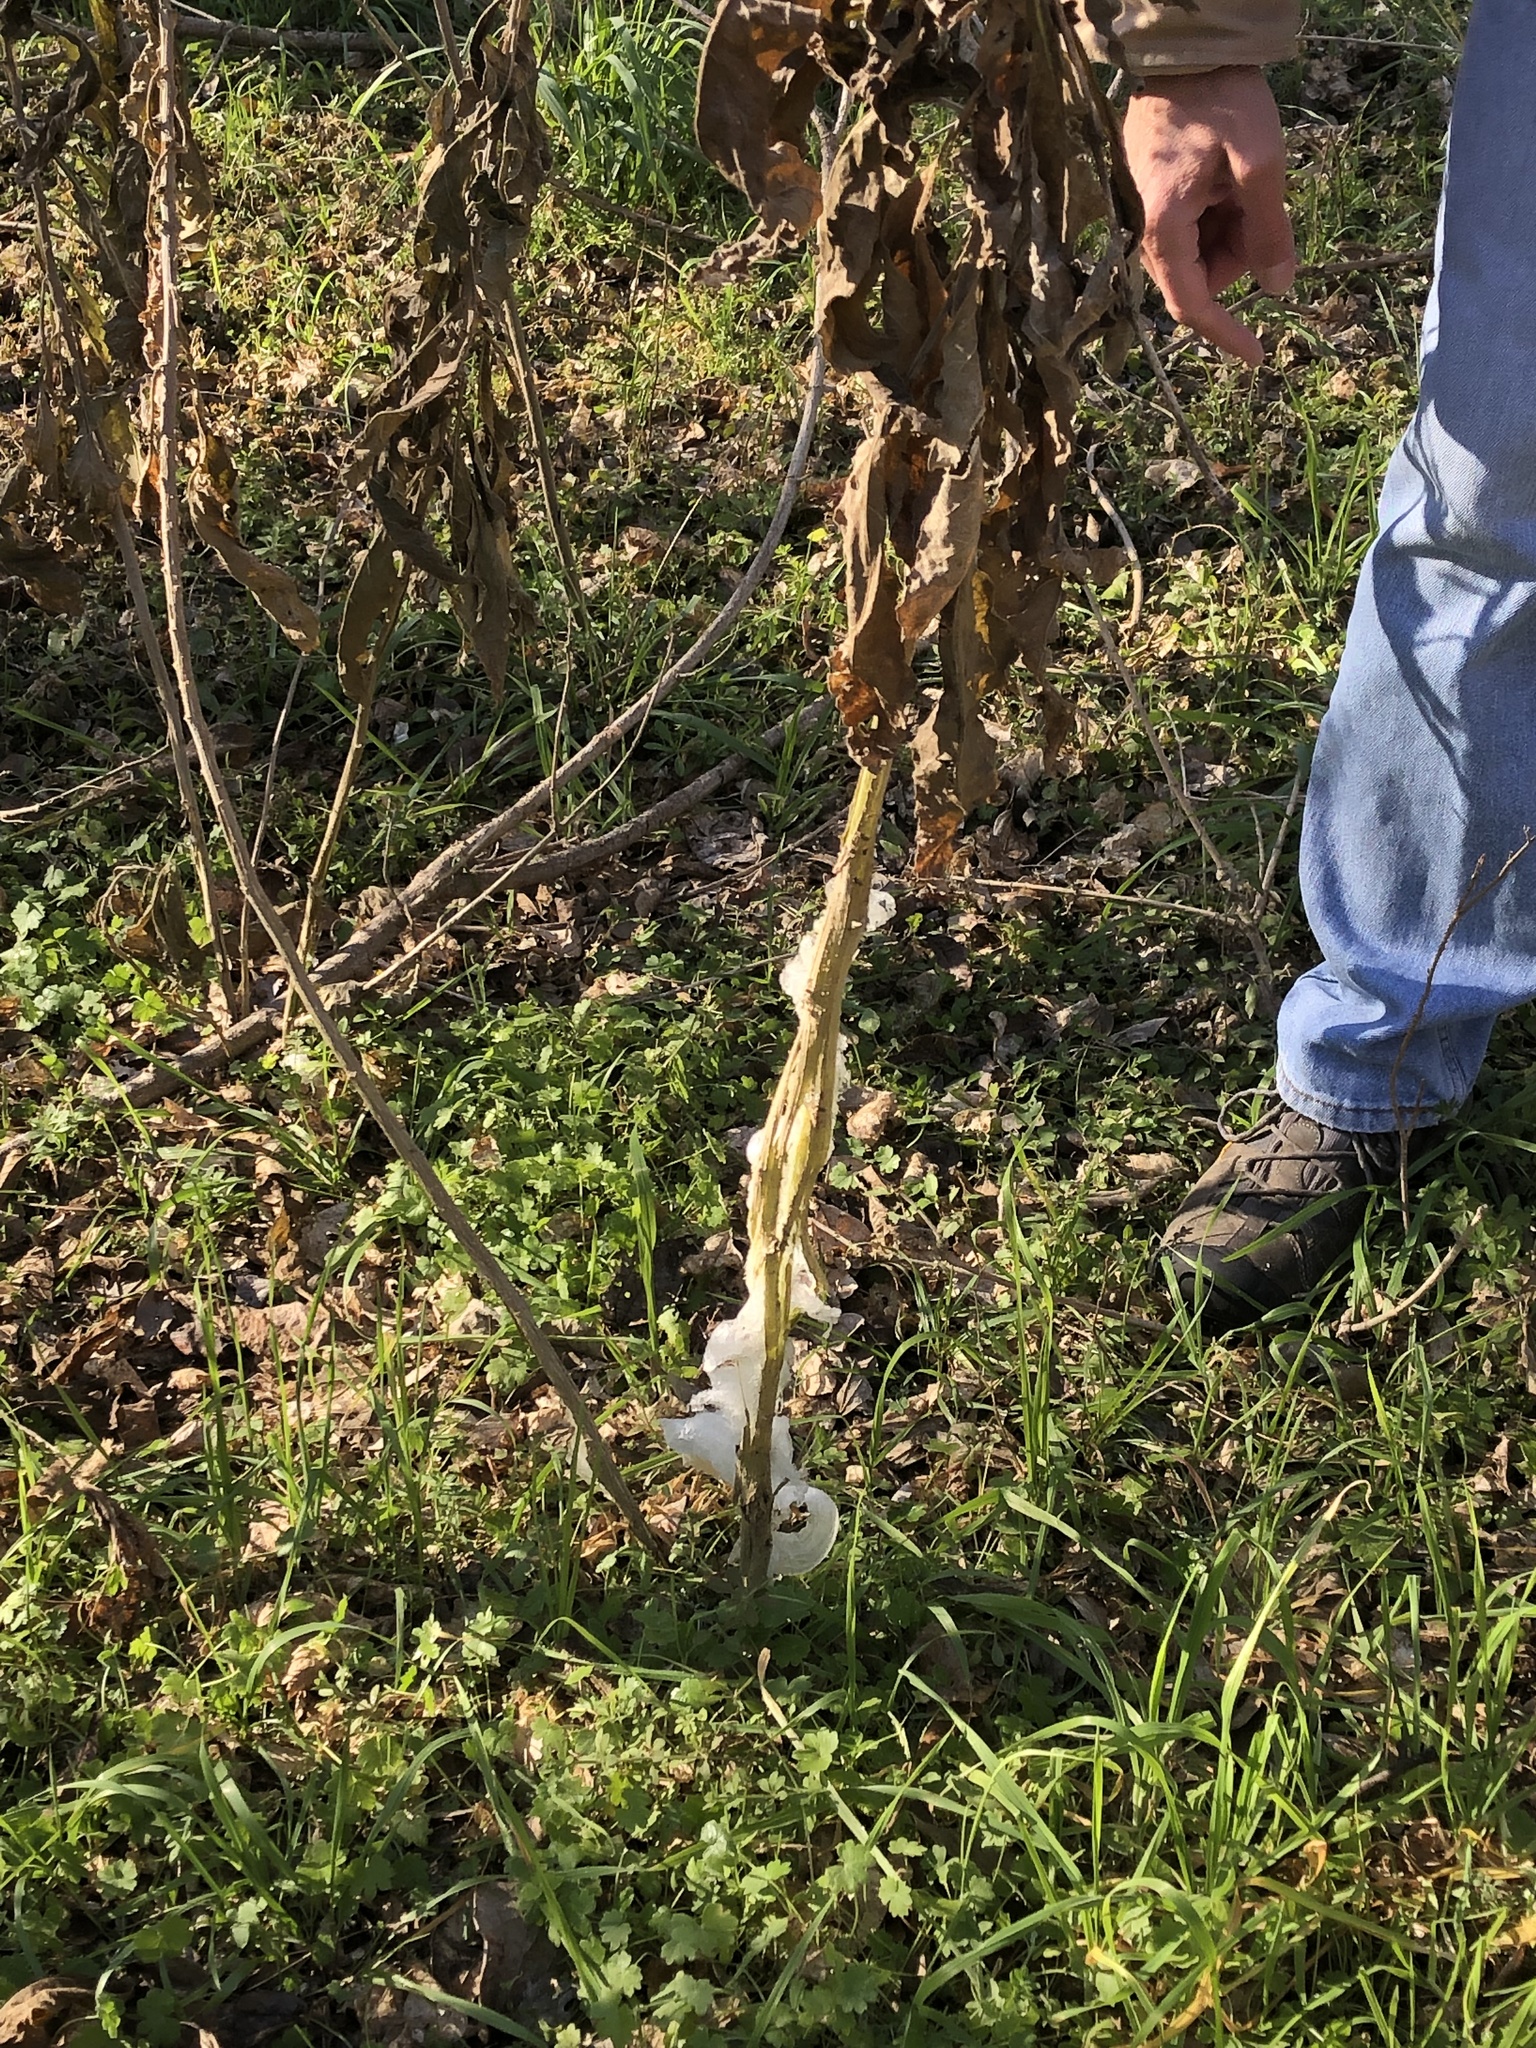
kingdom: Plantae
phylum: Tracheophyta
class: Magnoliopsida
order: Asterales
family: Asteraceae
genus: Verbesina
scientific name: Verbesina virginica
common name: Frostweed
